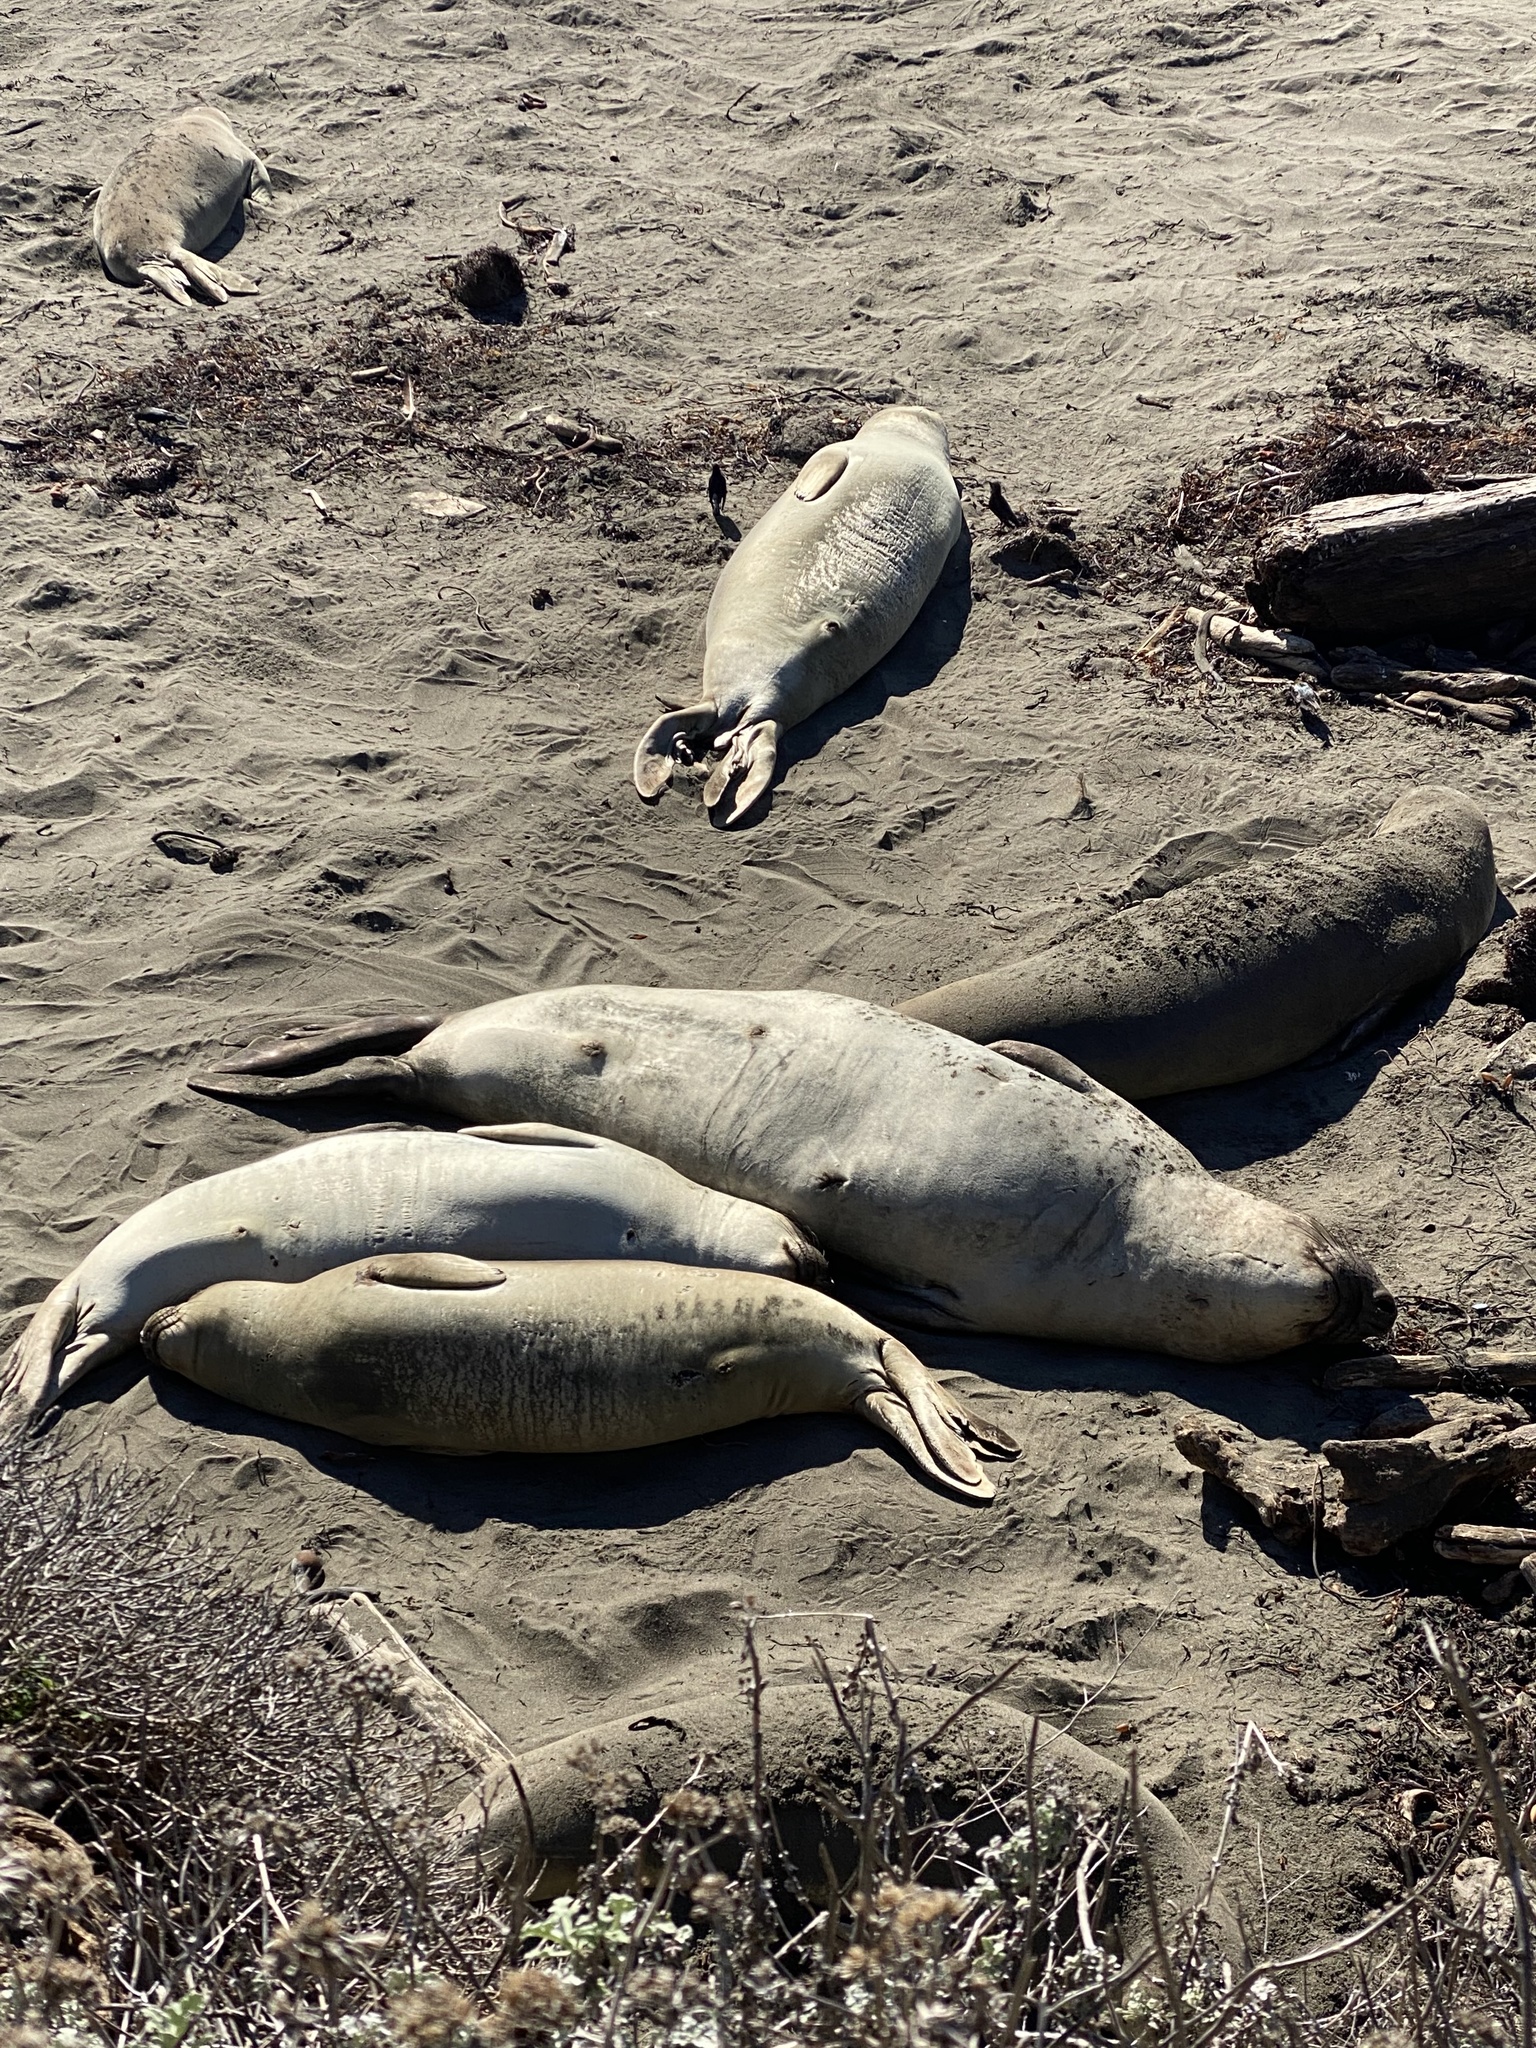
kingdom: Animalia
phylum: Chordata
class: Mammalia
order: Carnivora
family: Phocidae
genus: Mirounga
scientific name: Mirounga angustirostris
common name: Northern elephant seal
